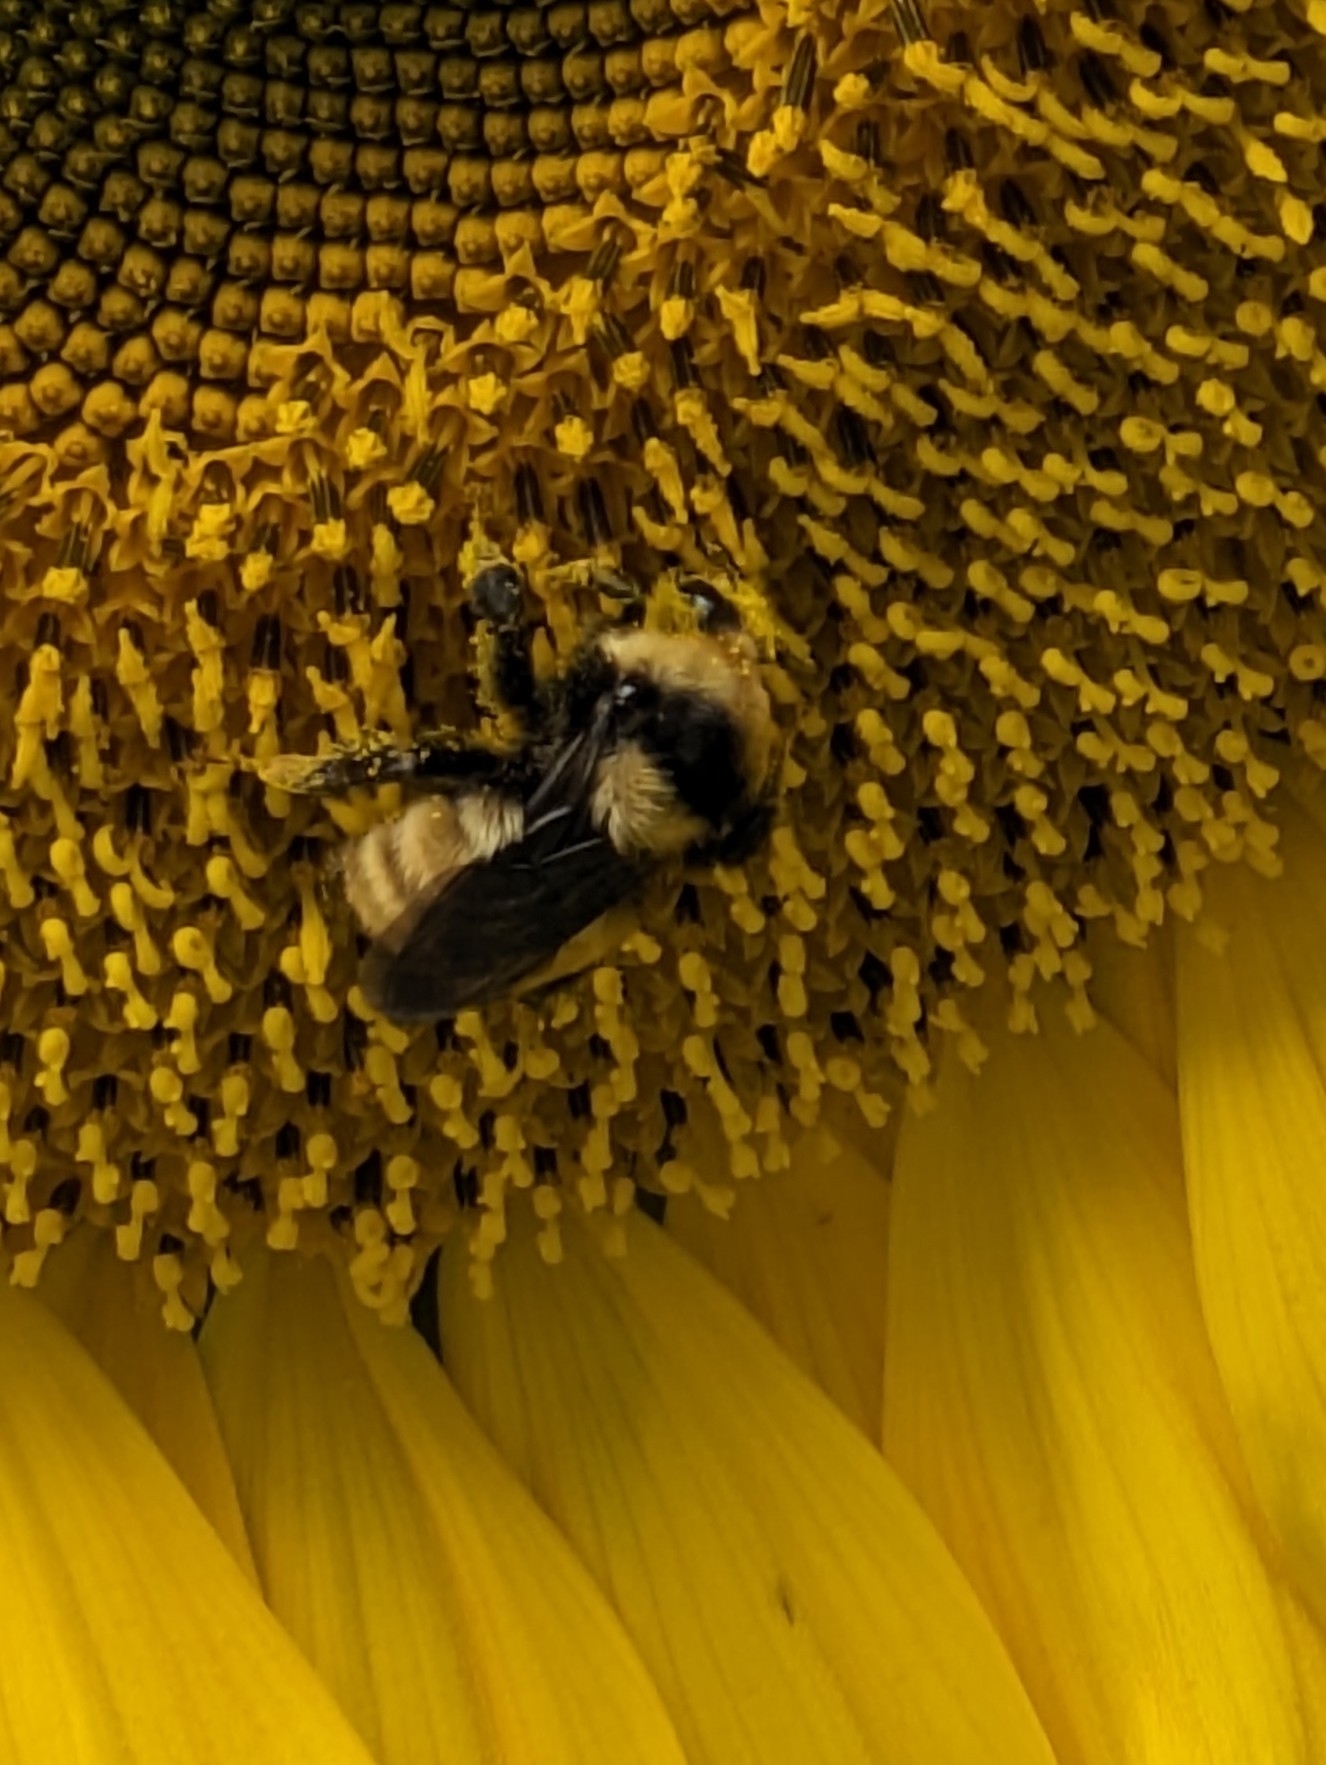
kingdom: Animalia
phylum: Arthropoda
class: Insecta
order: Hymenoptera
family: Apidae
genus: Bombus
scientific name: Bombus borealis
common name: Northern amber bumble bee
